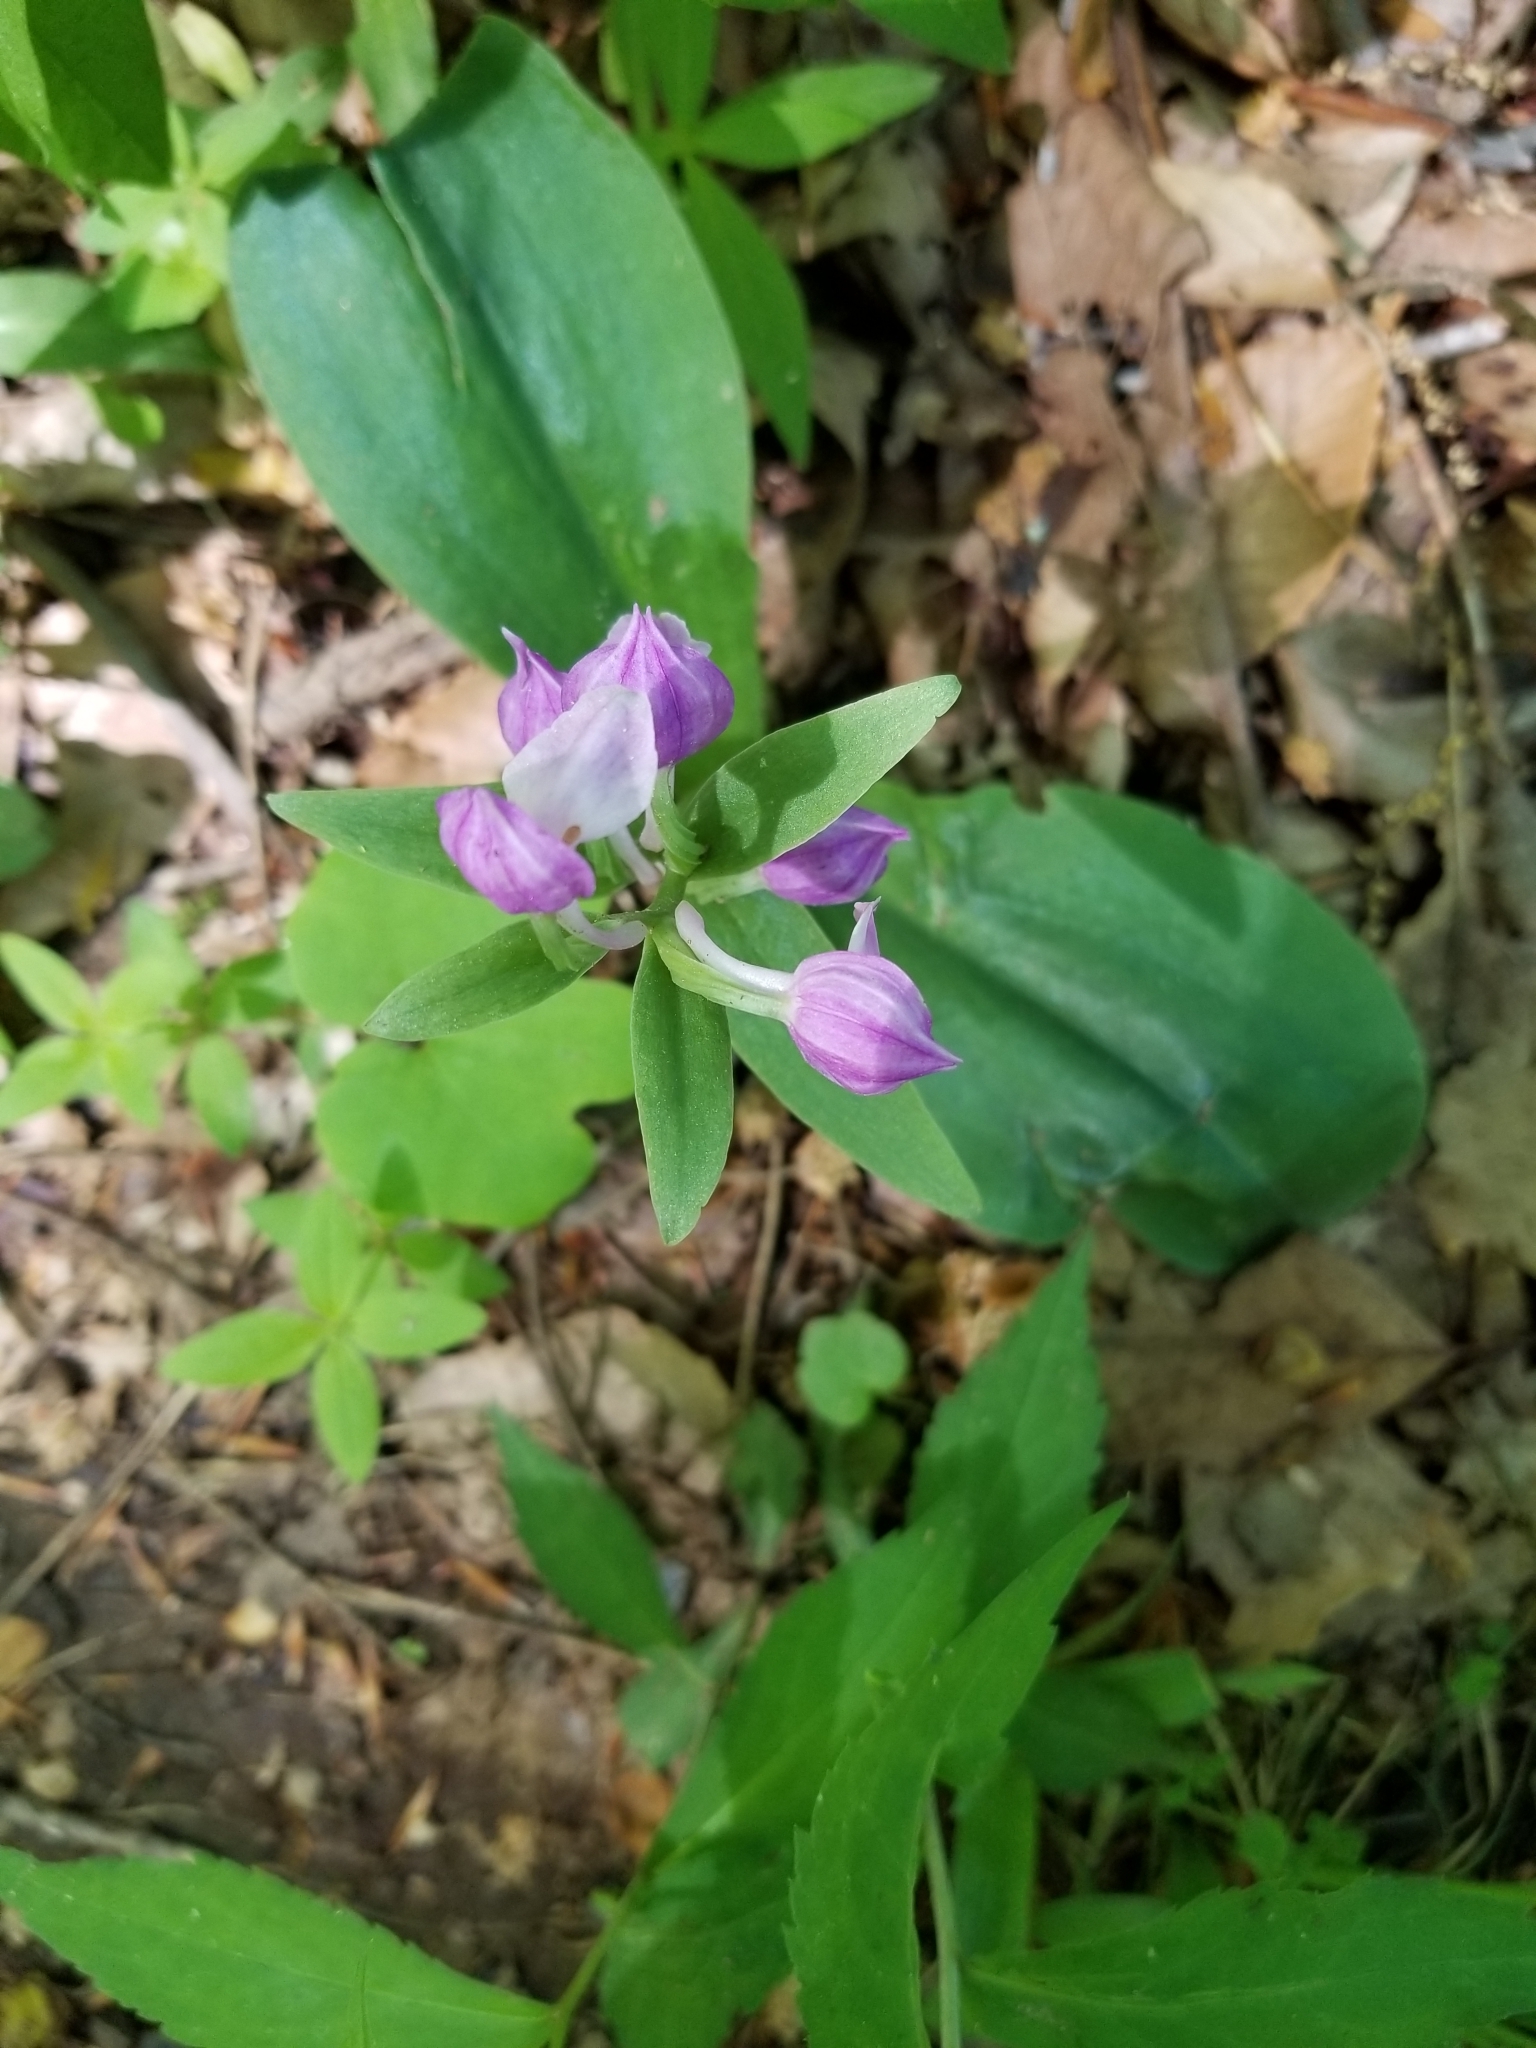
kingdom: Plantae
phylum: Tracheophyta
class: Liliopsida
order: Asparagales
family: Orchidaceae
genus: Galearis
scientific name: Galearis spectabilis
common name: Purple-hooded orchis
